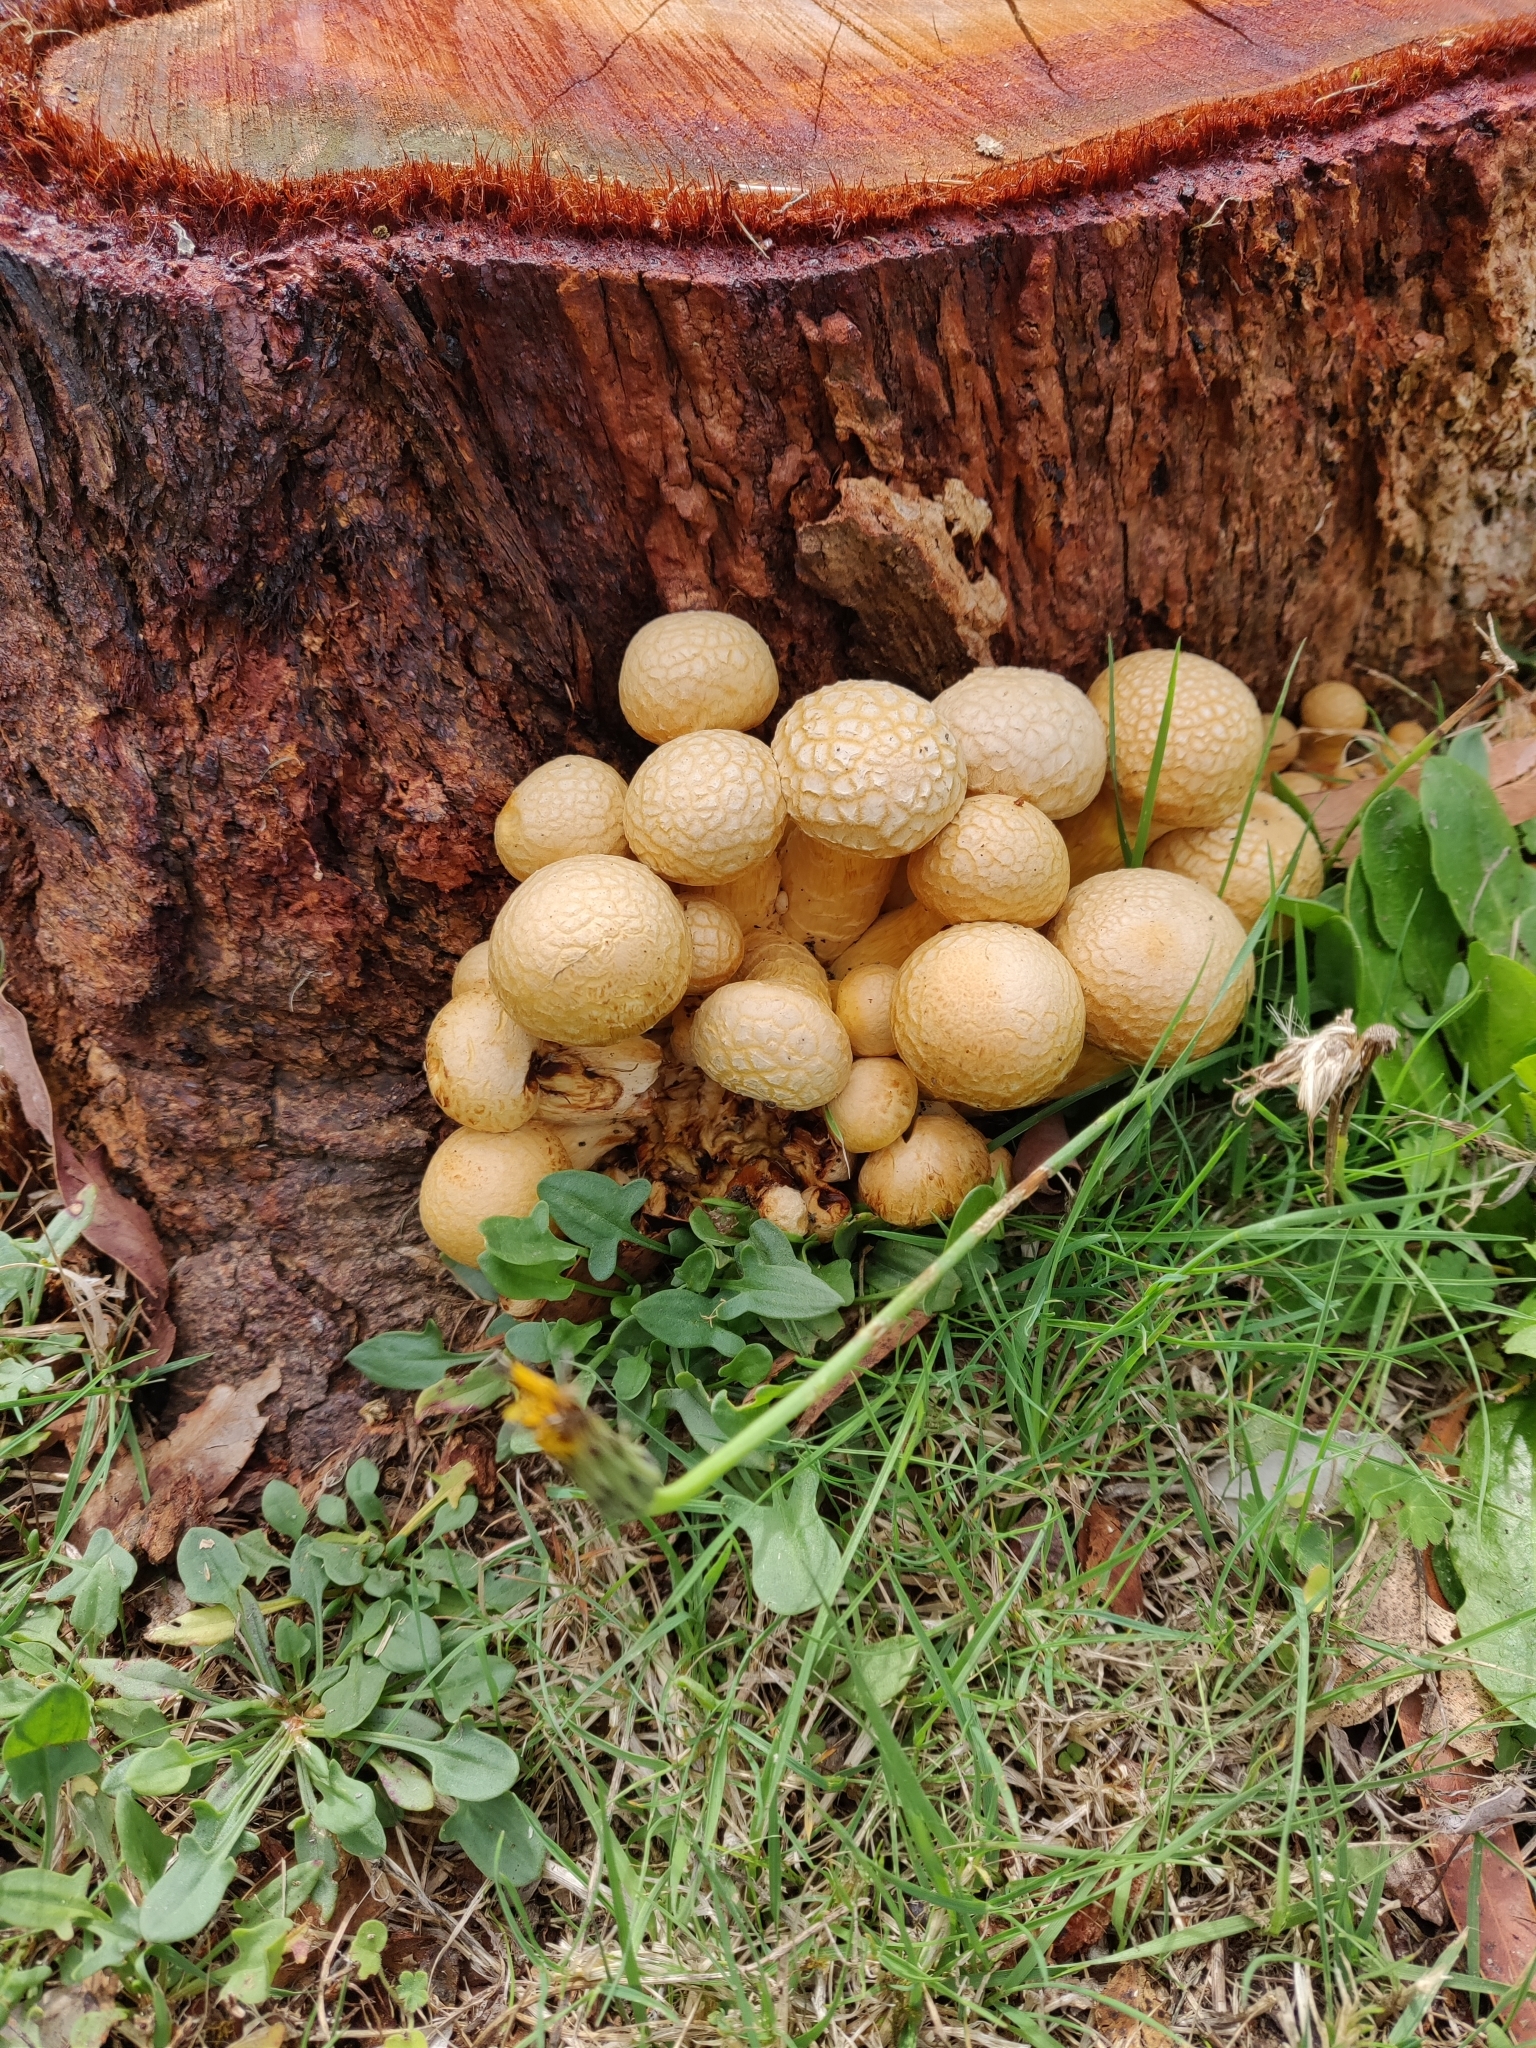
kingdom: Fungi
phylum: Basidiomycota
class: Agaricomycetes
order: Agaricales
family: Hymenogastraceae
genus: Gymnopilus
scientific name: Gymnopilus junonius
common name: Spectacular rustgill
